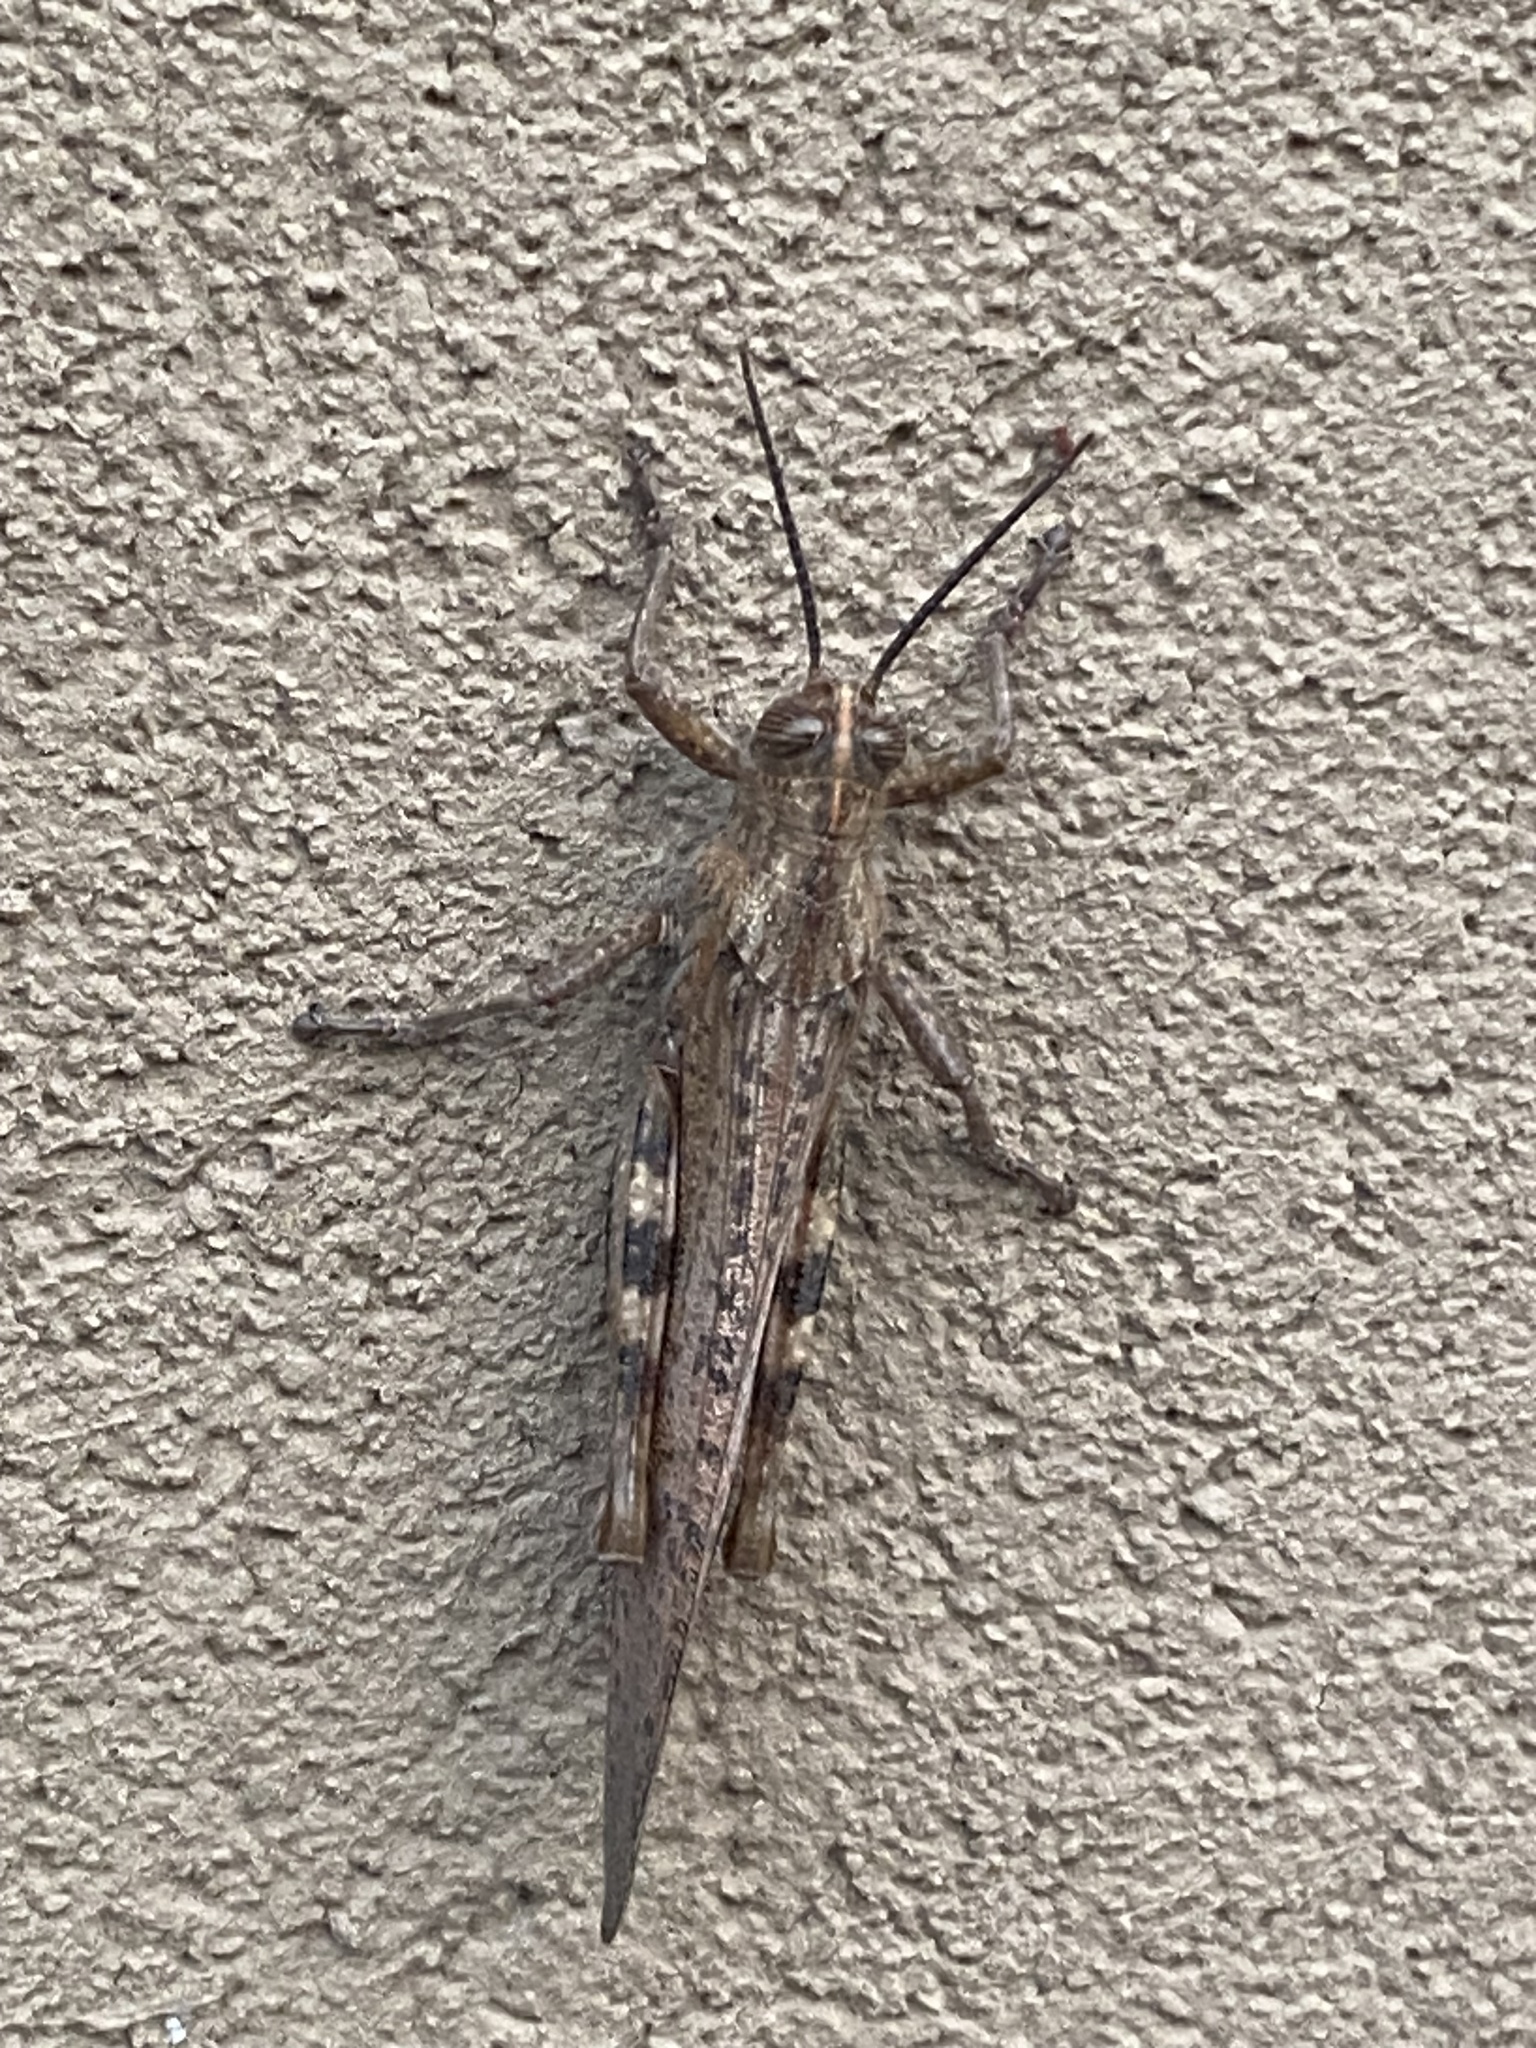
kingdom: Animalia
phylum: Arthropoda
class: Insecta
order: Orthoptera
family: Acrididae
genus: Anacridium
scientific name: Anacridium aegyptium
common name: Egyptian grasshopper
